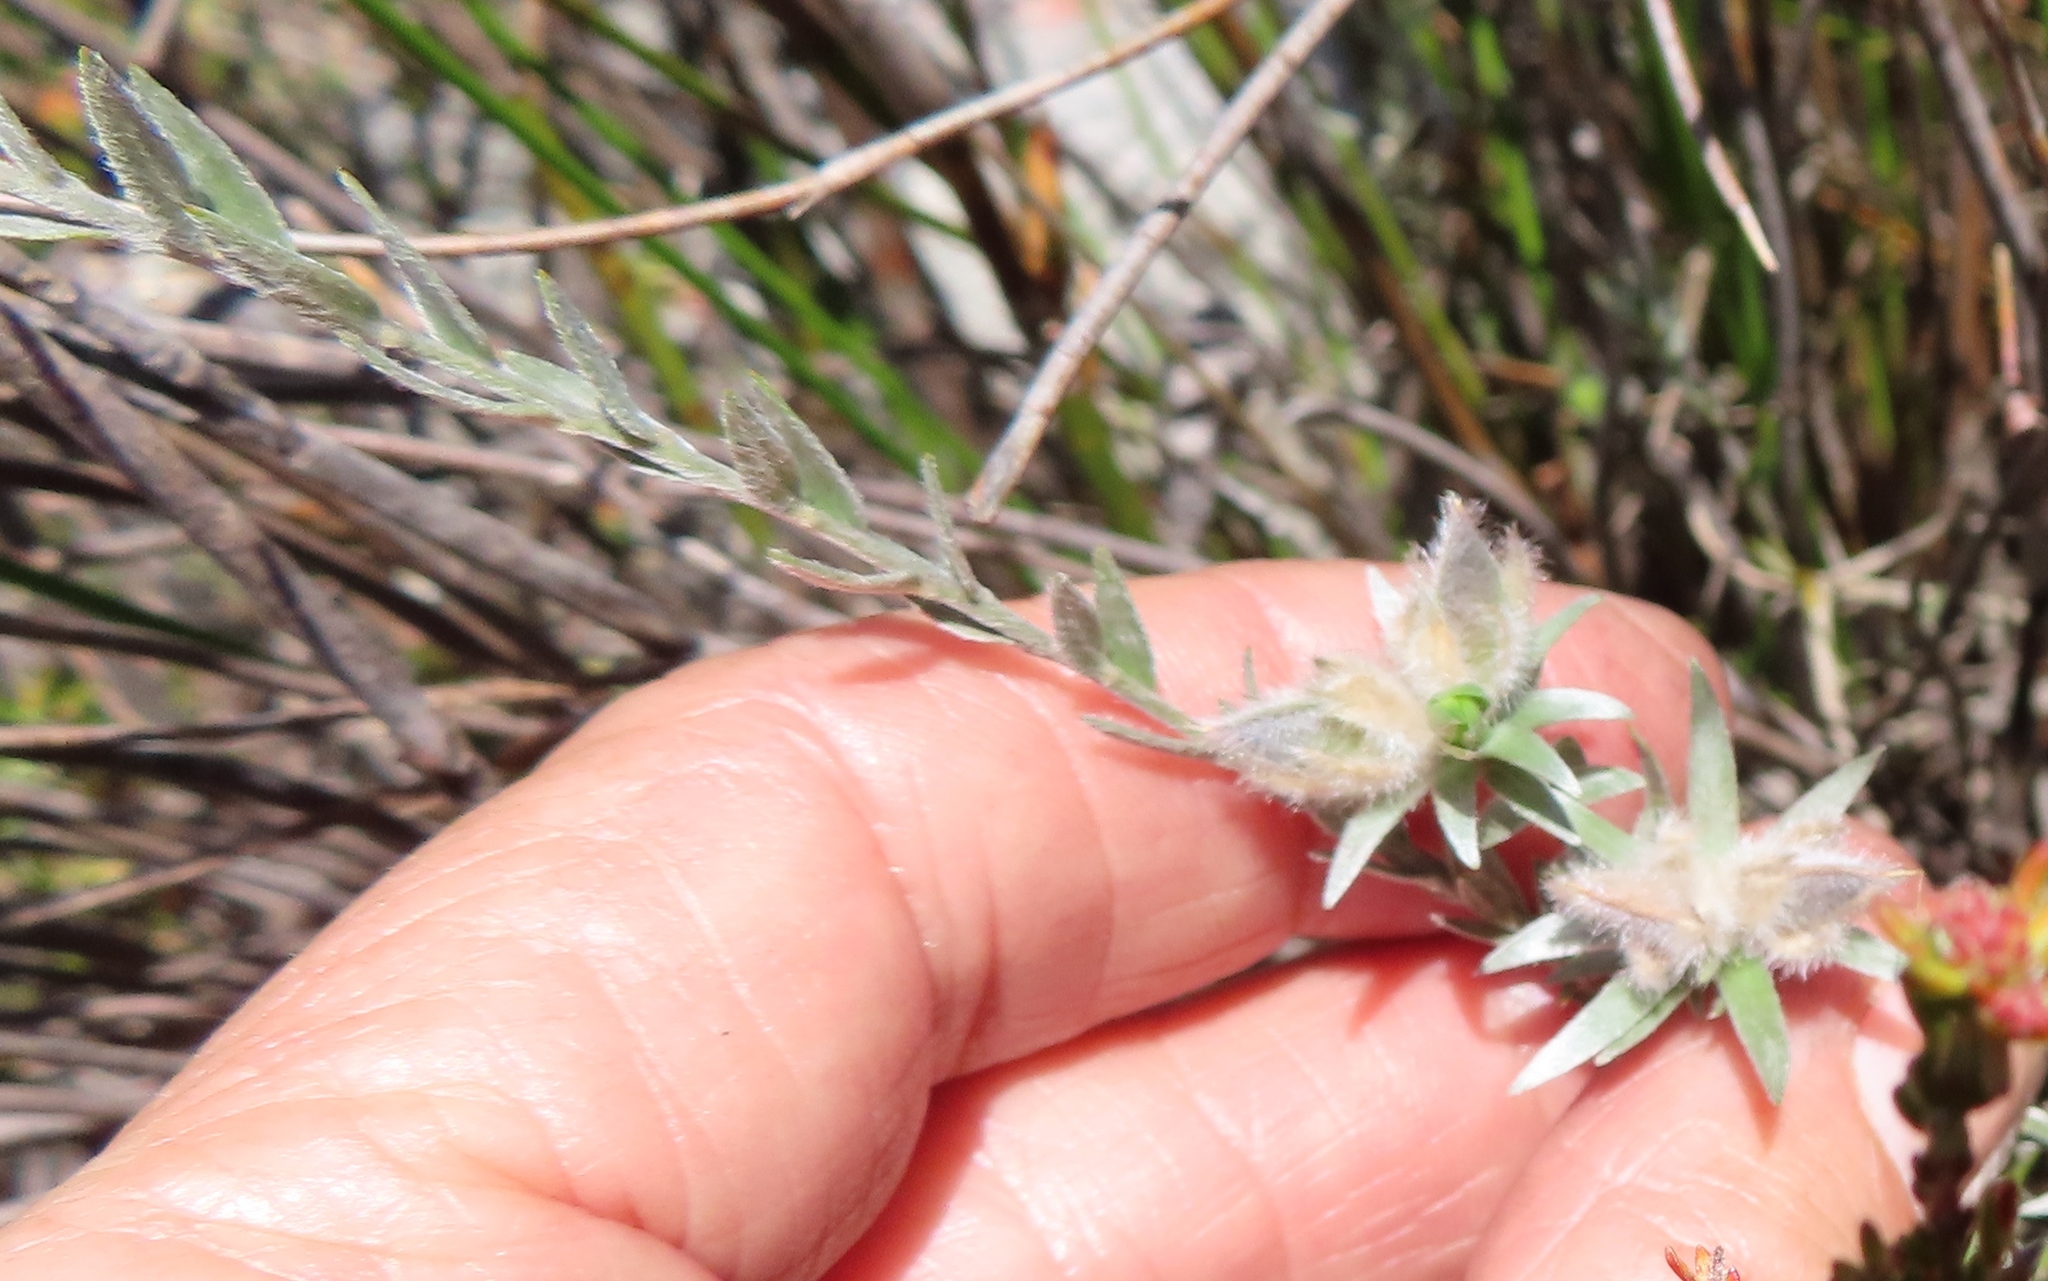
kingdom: Plantae
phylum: Tracheophyta
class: Magnoliopsida
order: Fabales
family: Fabaceae
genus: Amphithalea
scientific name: Amphithalea tomentosa
